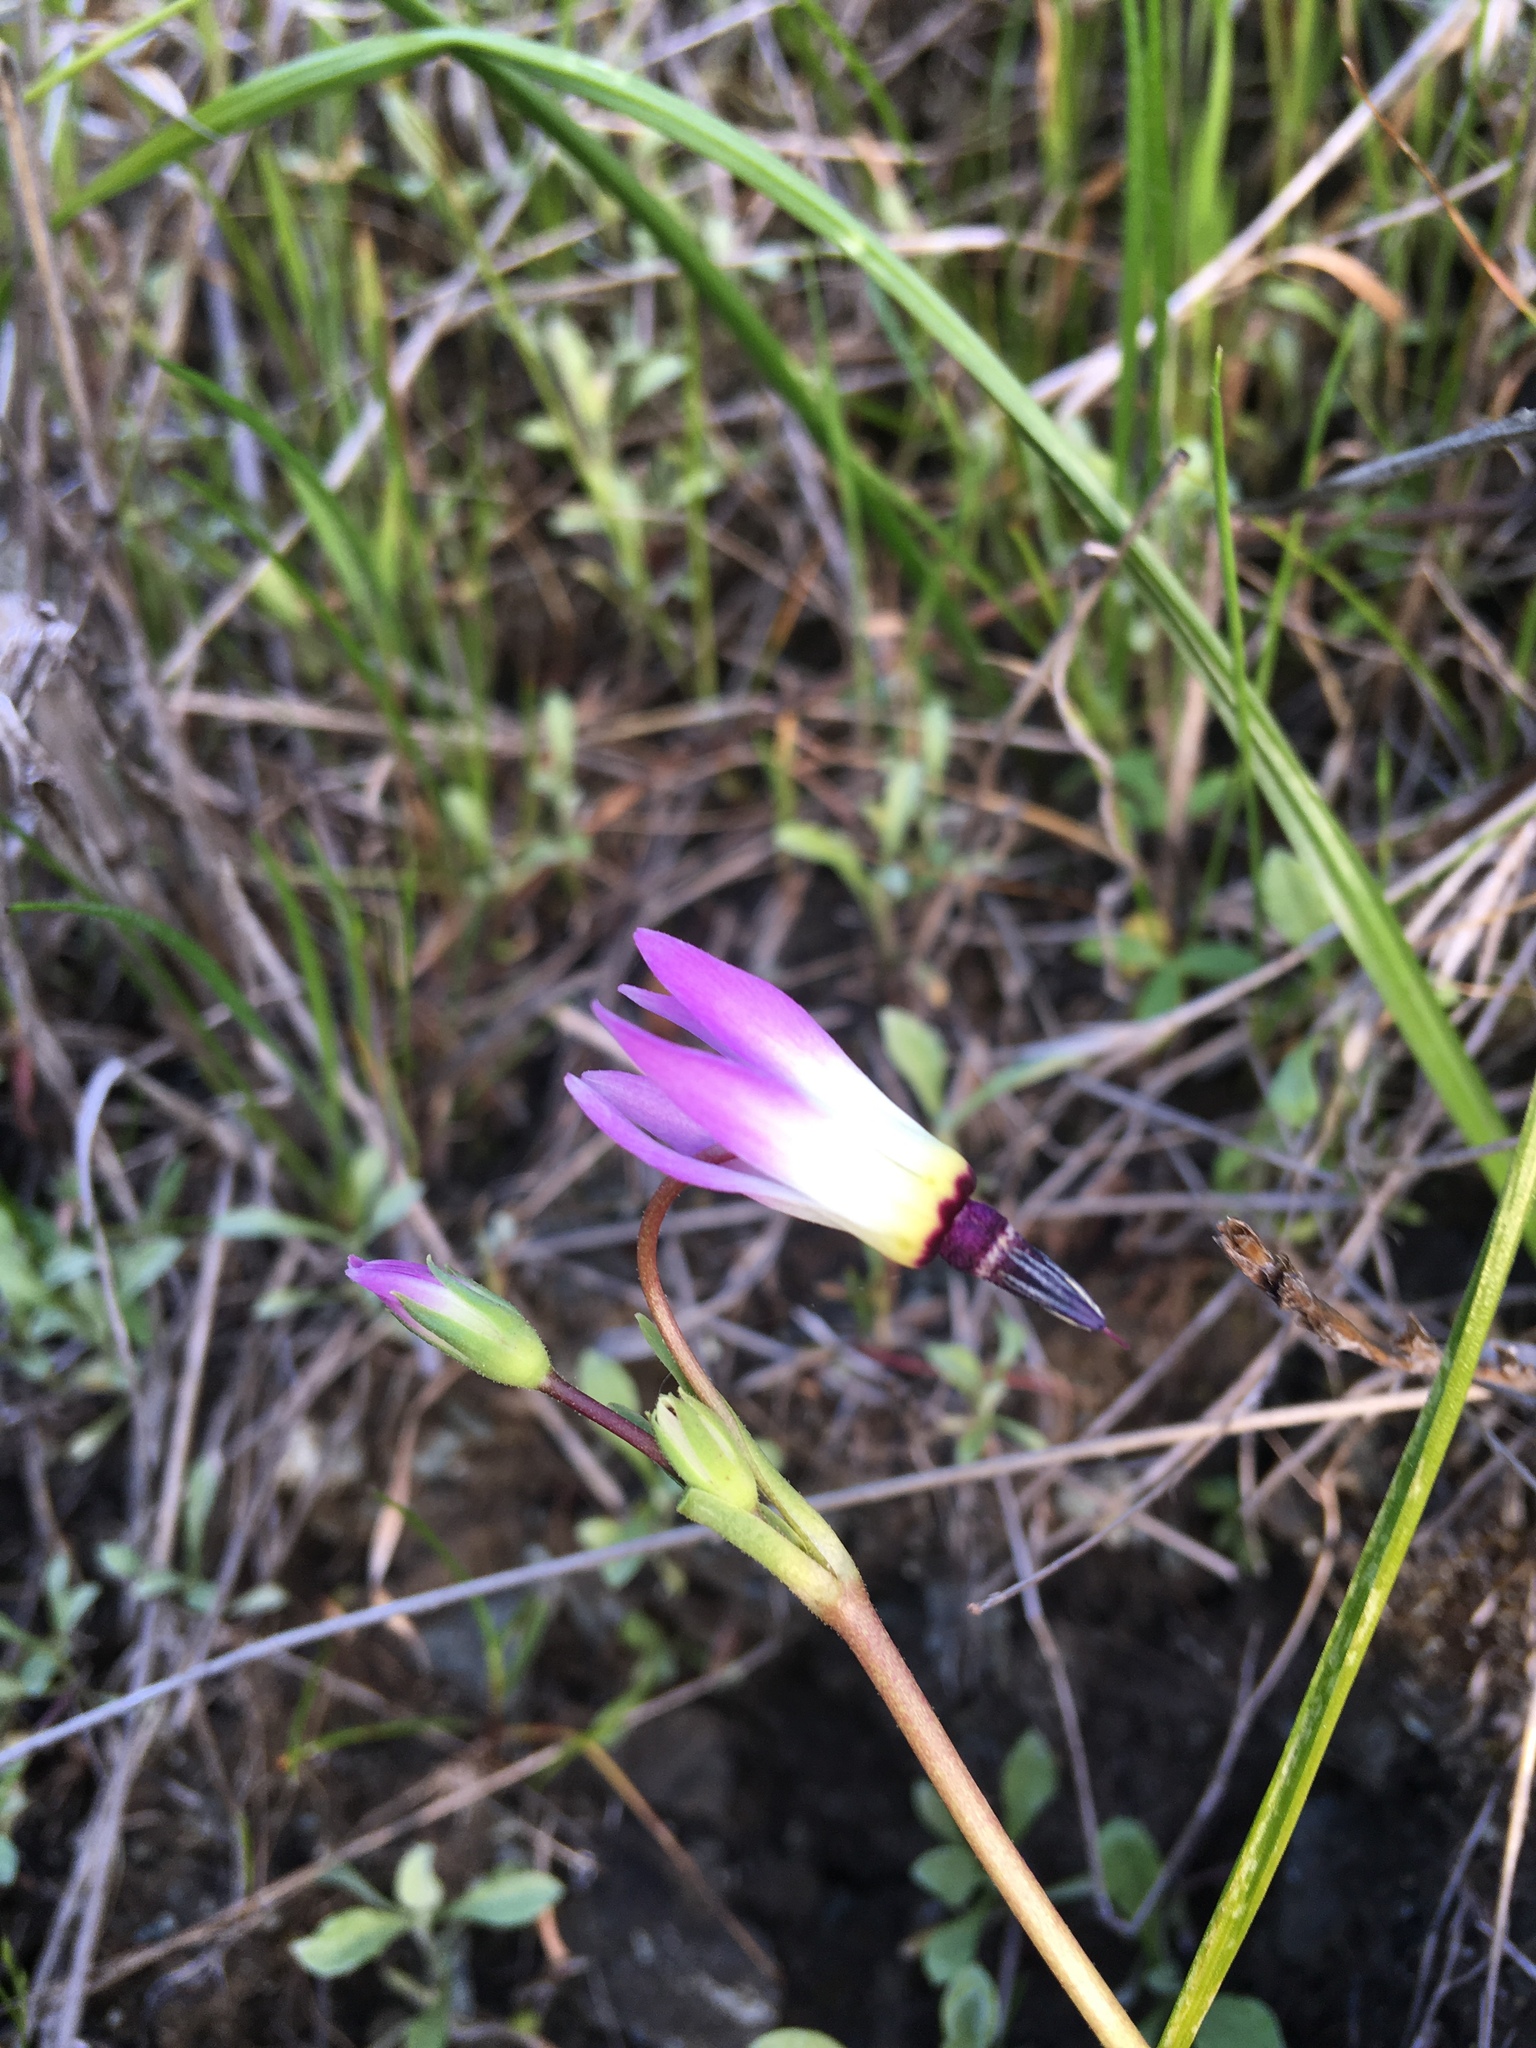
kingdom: Plantae
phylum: Tracheophyta
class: Magnoliopsida
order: Ericales
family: Primulaceae
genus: Dodecatheon
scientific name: Dodecatheon clevelandii
